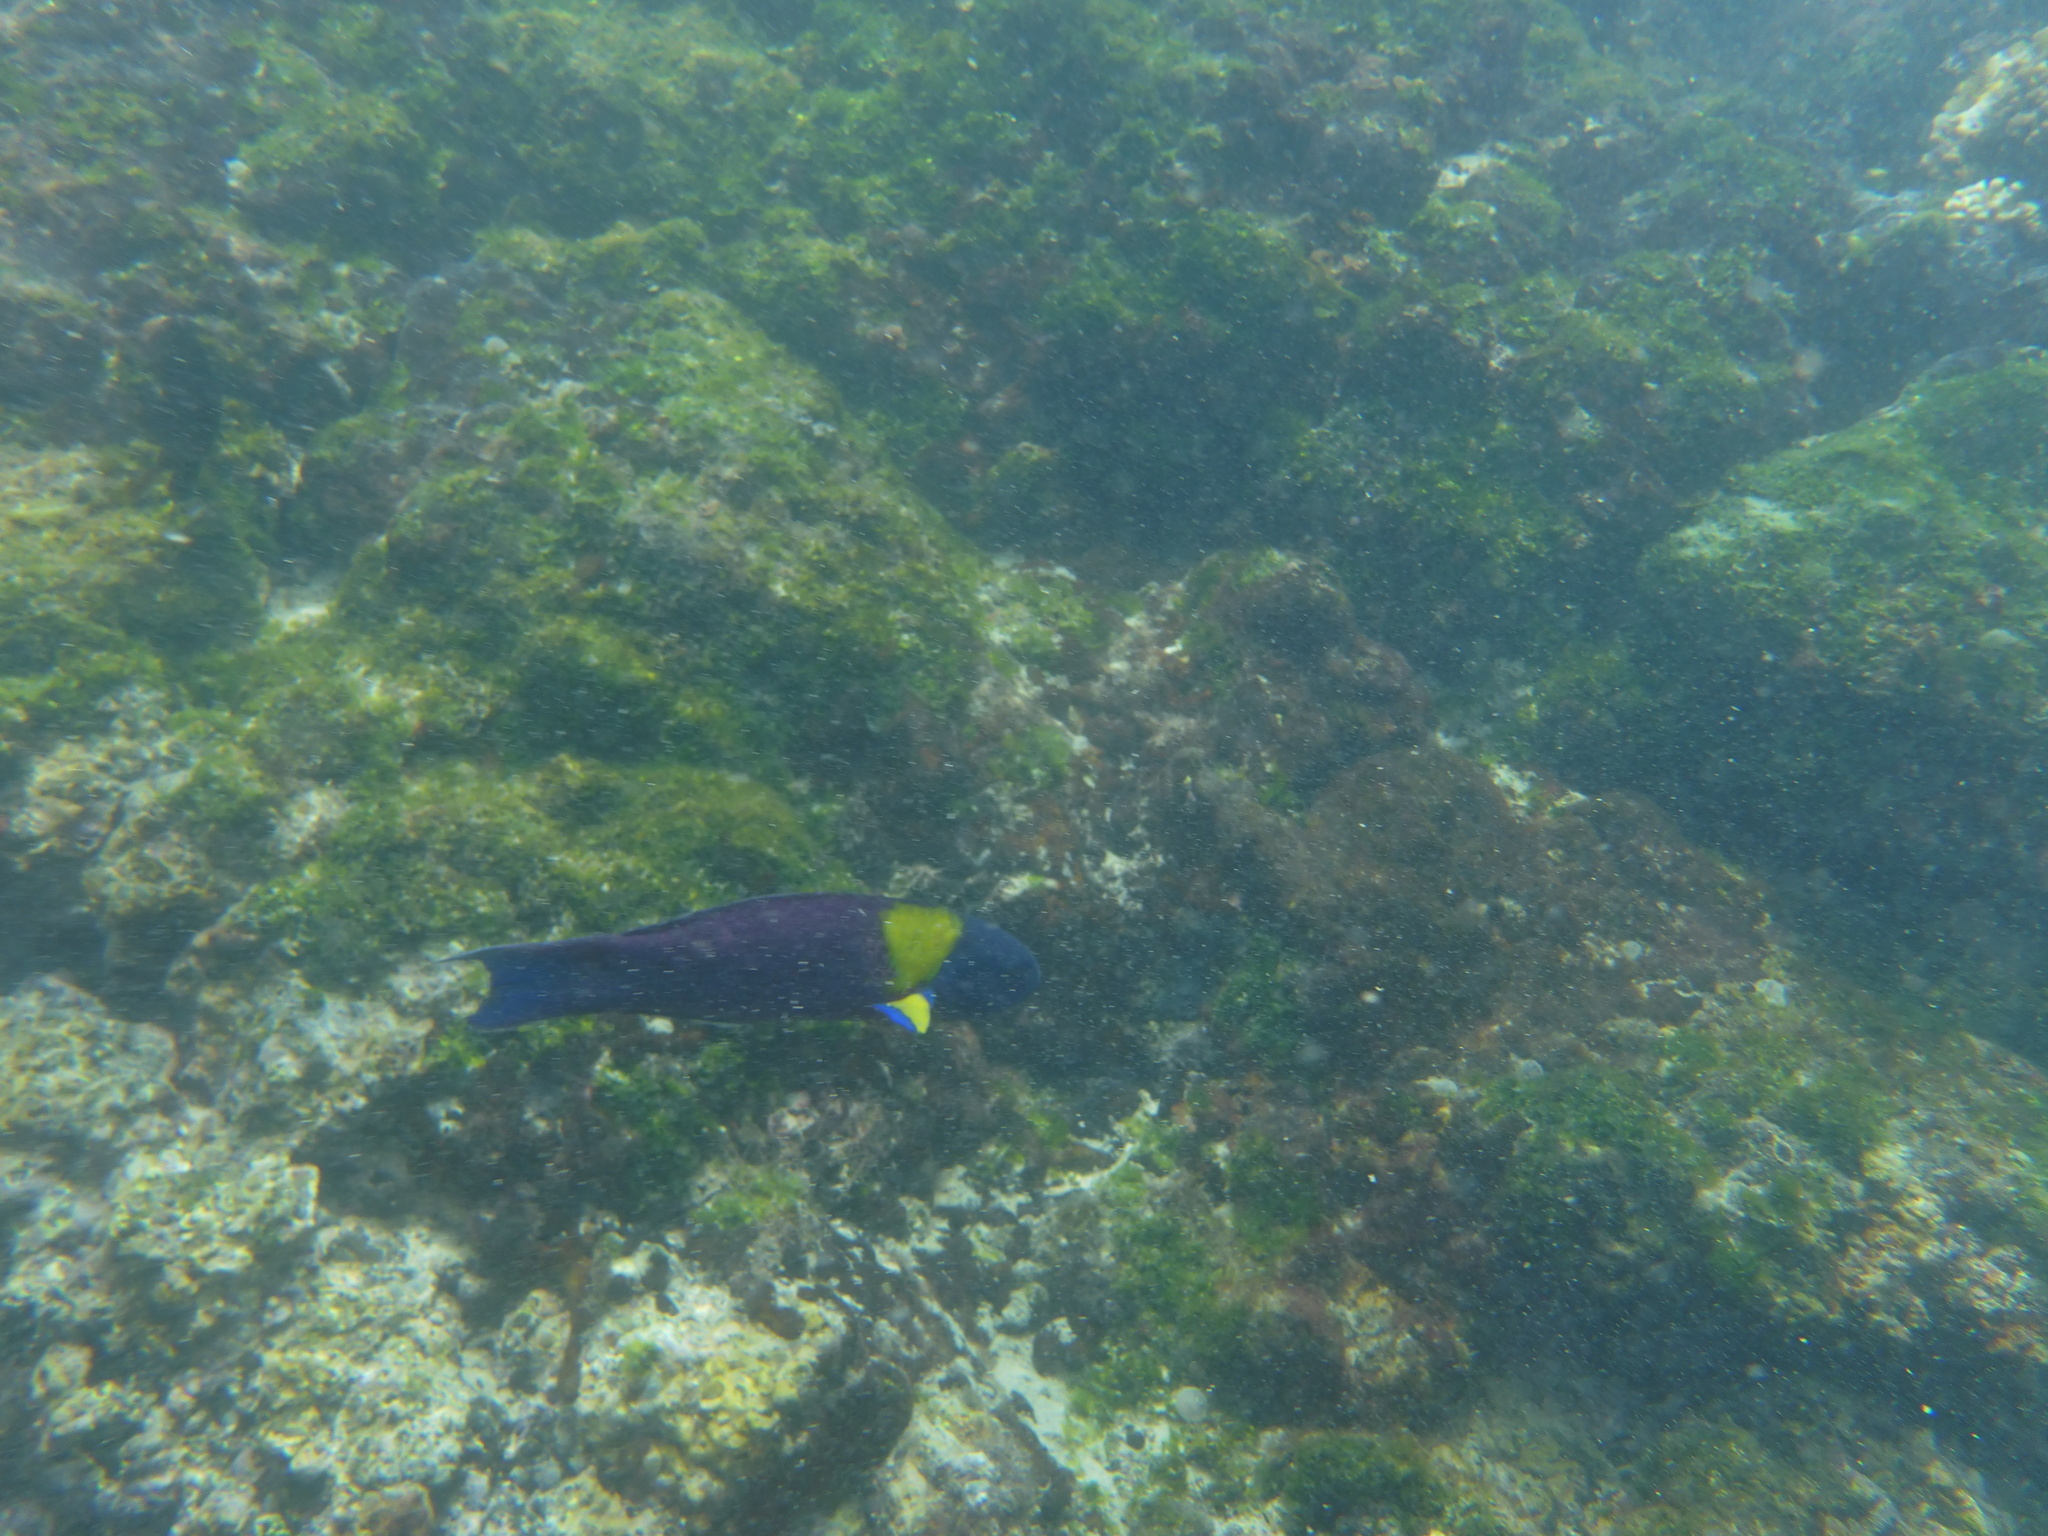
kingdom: Animalia
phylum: Chordata
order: Perciformes
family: Labridae
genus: Thalassoma
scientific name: Thalassoma lucasanum
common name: Cortez rainbow wrasse
